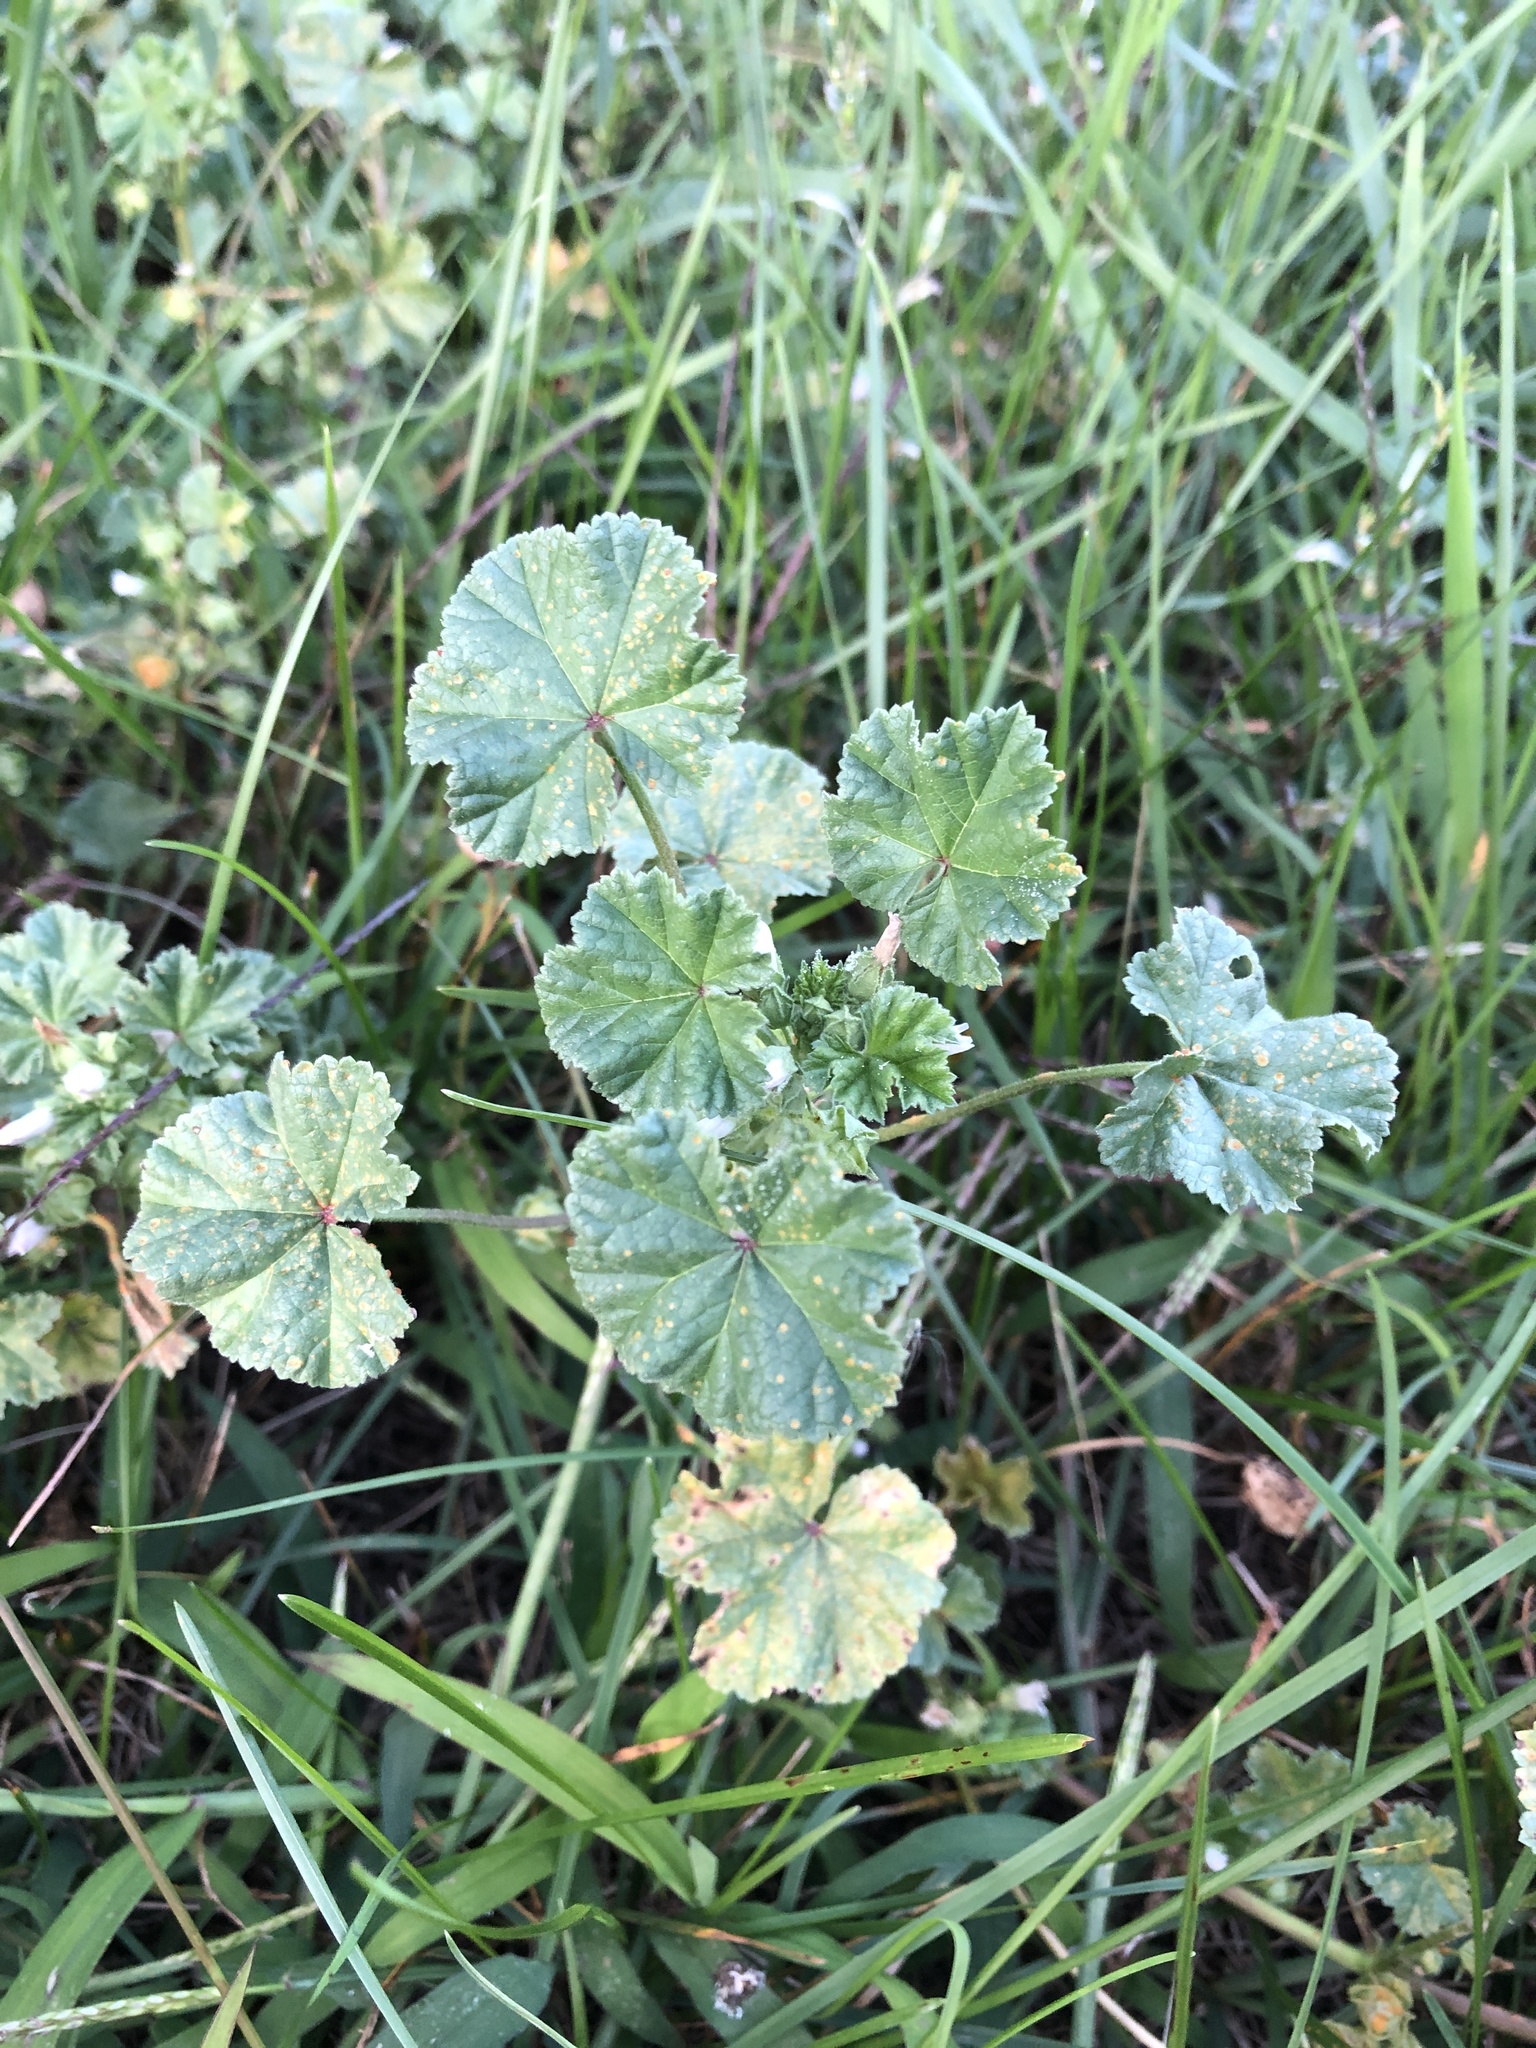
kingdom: Plantae
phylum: Tracheophyta
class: Magnoliopsida
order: Malvales
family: Malvaceae
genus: Malva
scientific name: Malva neglecta
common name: Common mallow
